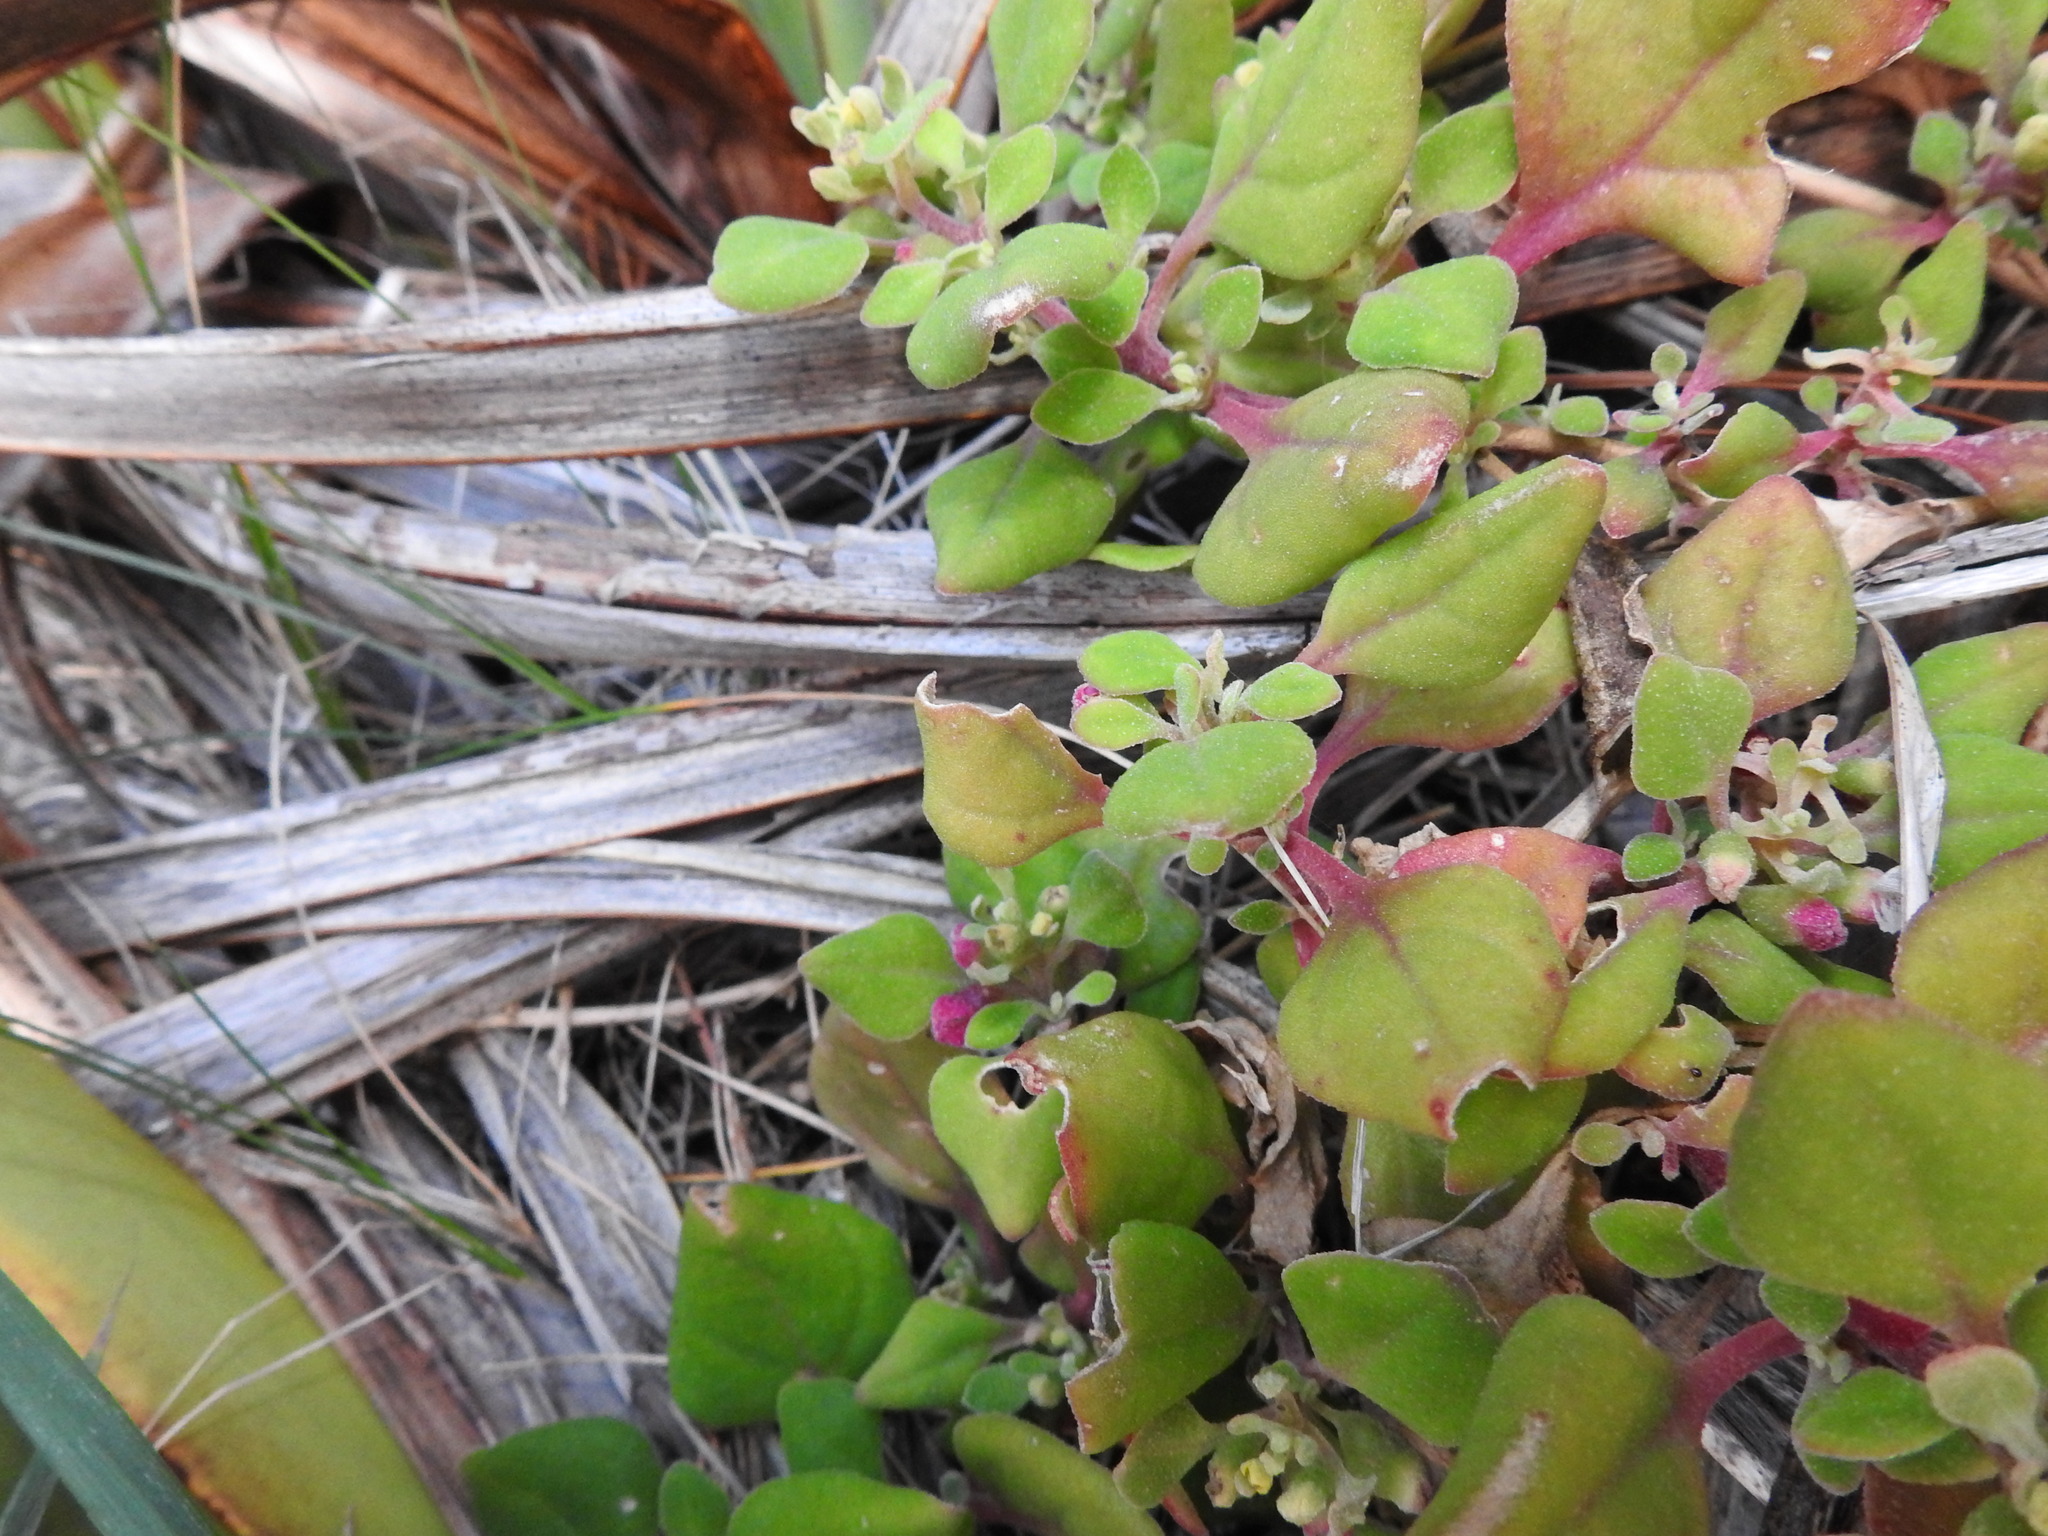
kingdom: Plantae
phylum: Tracheophyta
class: Magnoliopsida
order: Caryophyllales
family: Aizoaceae
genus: Tetragonia
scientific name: Tetragonia implexicoma
